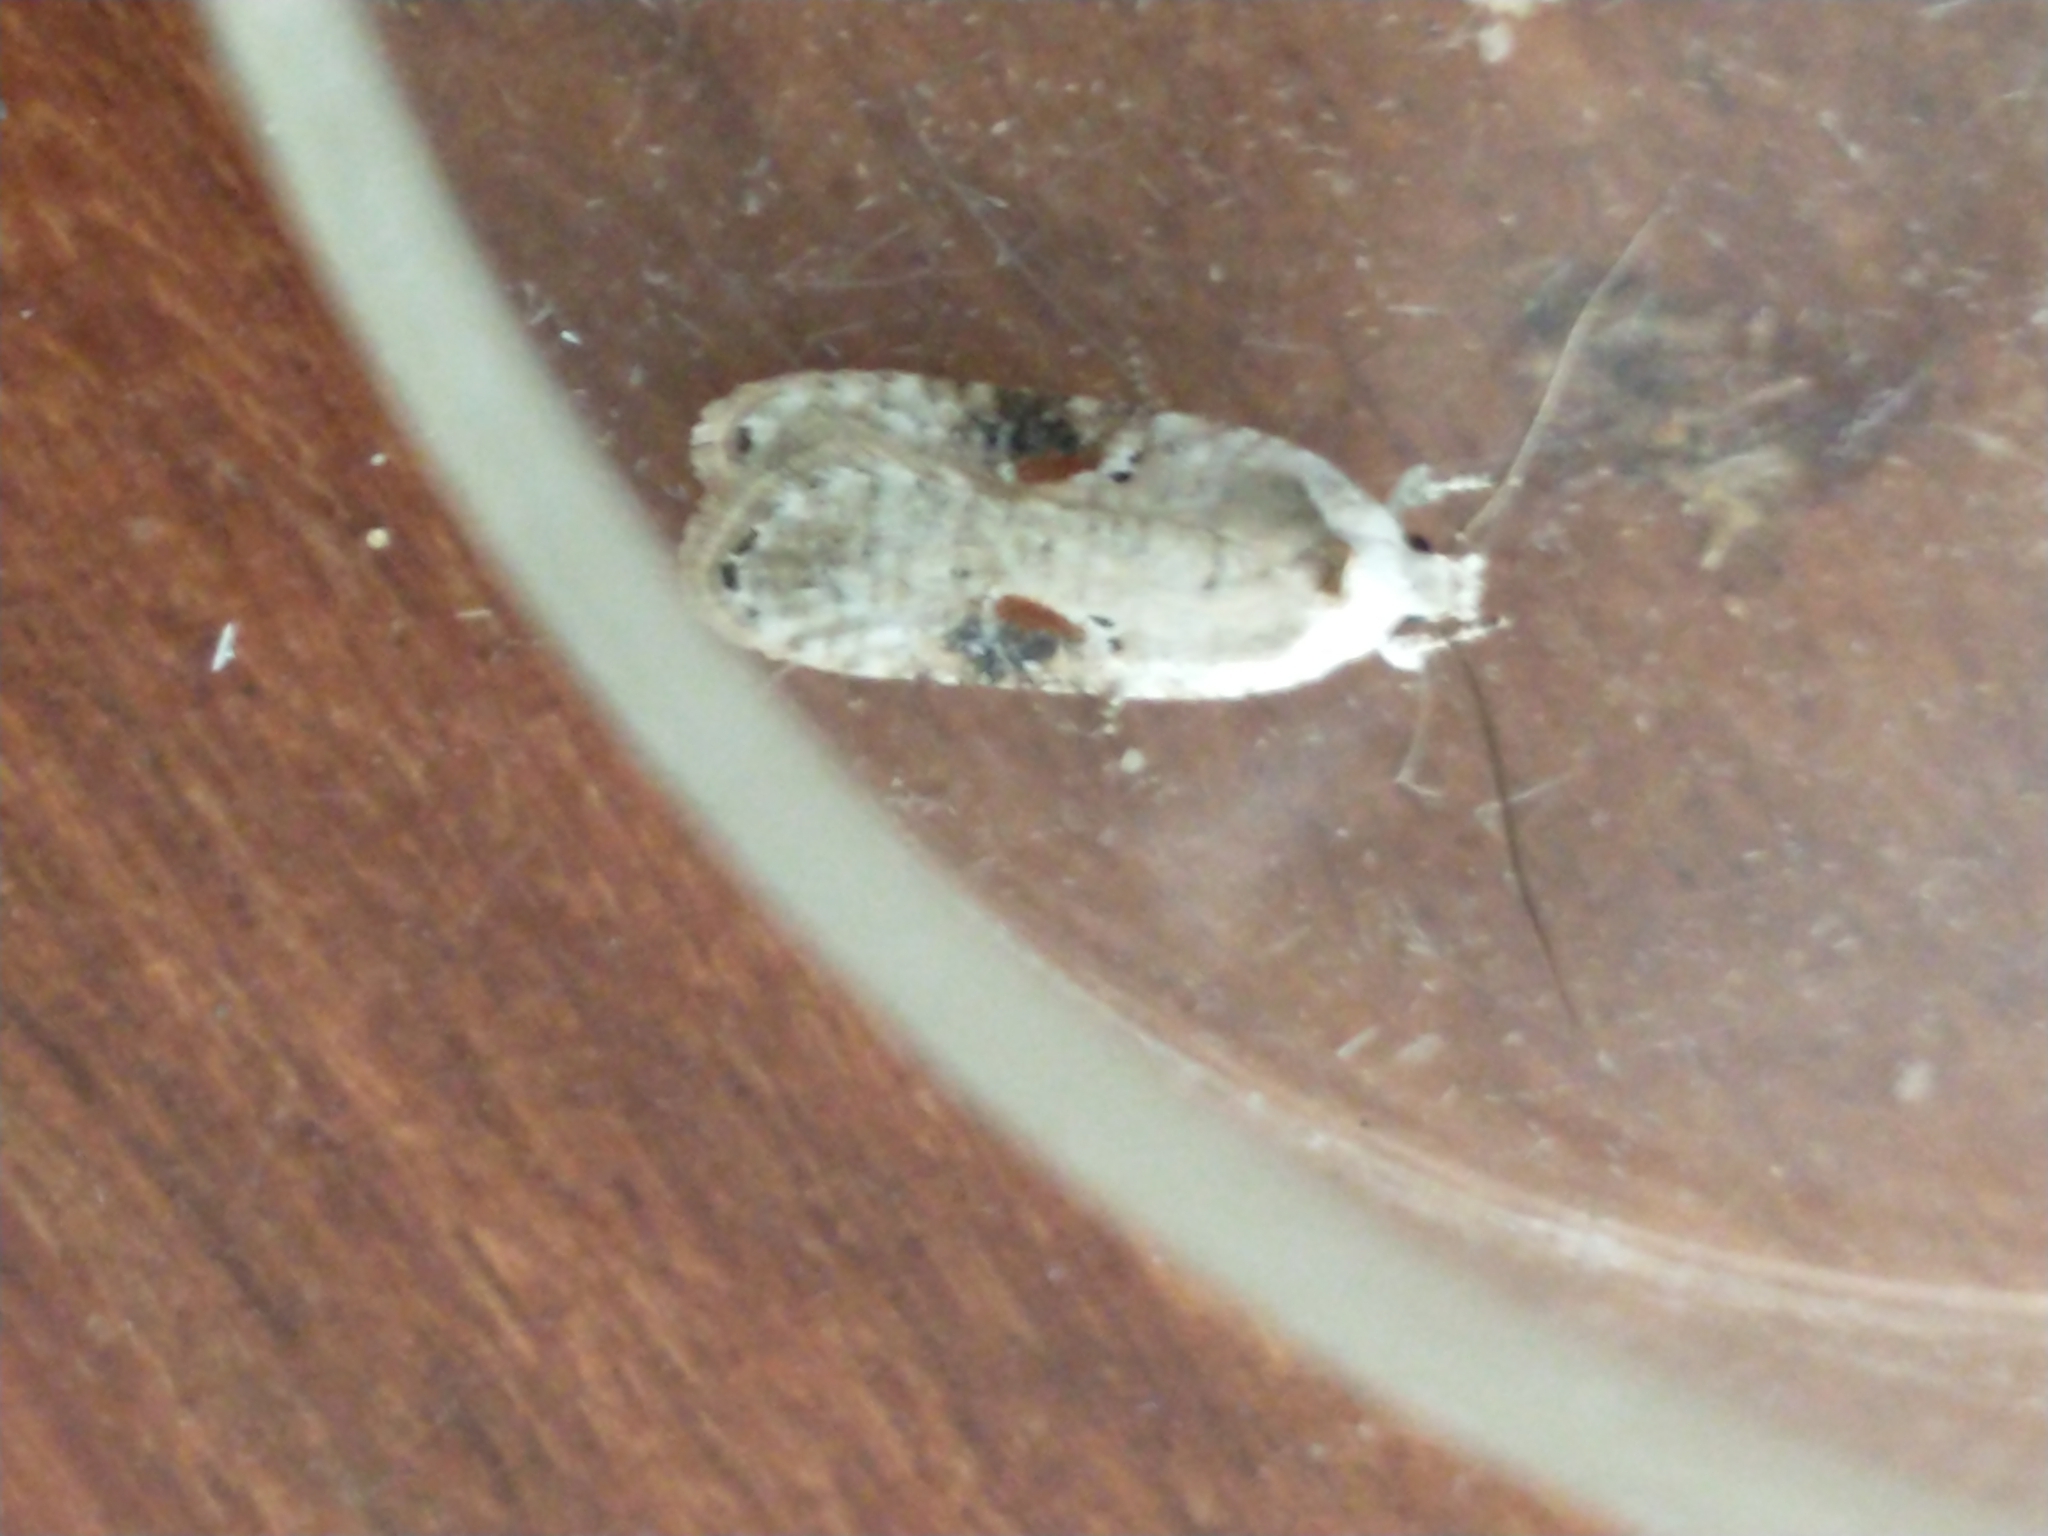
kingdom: Animalia
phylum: Arthropoda
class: Insecta
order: Lepidoptera
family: Depressariidae
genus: Agonopterix
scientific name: Agonopterix alstroemeriana
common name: Moth
